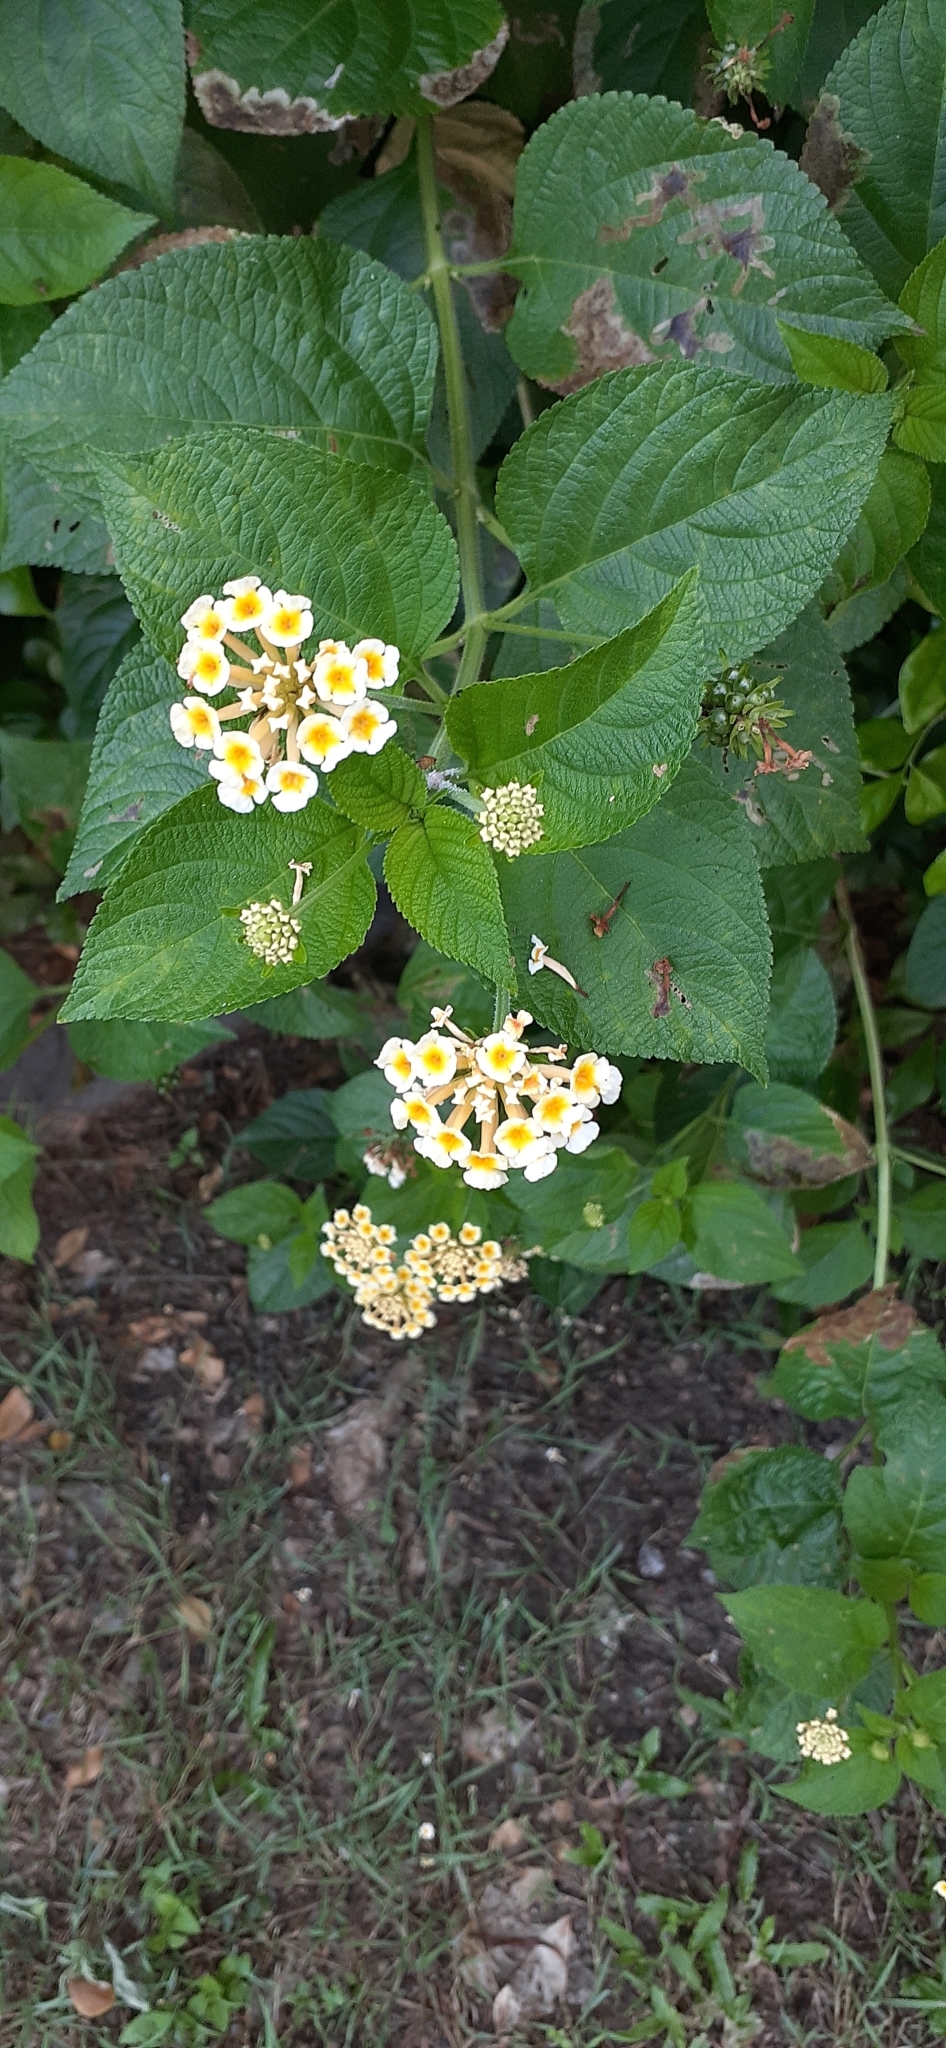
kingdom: Plantae
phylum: Tracheophyta
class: Magnoliopsida
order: Lamiales
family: Verbenaceae
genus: Lantana
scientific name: Lantana camara
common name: Lantana
